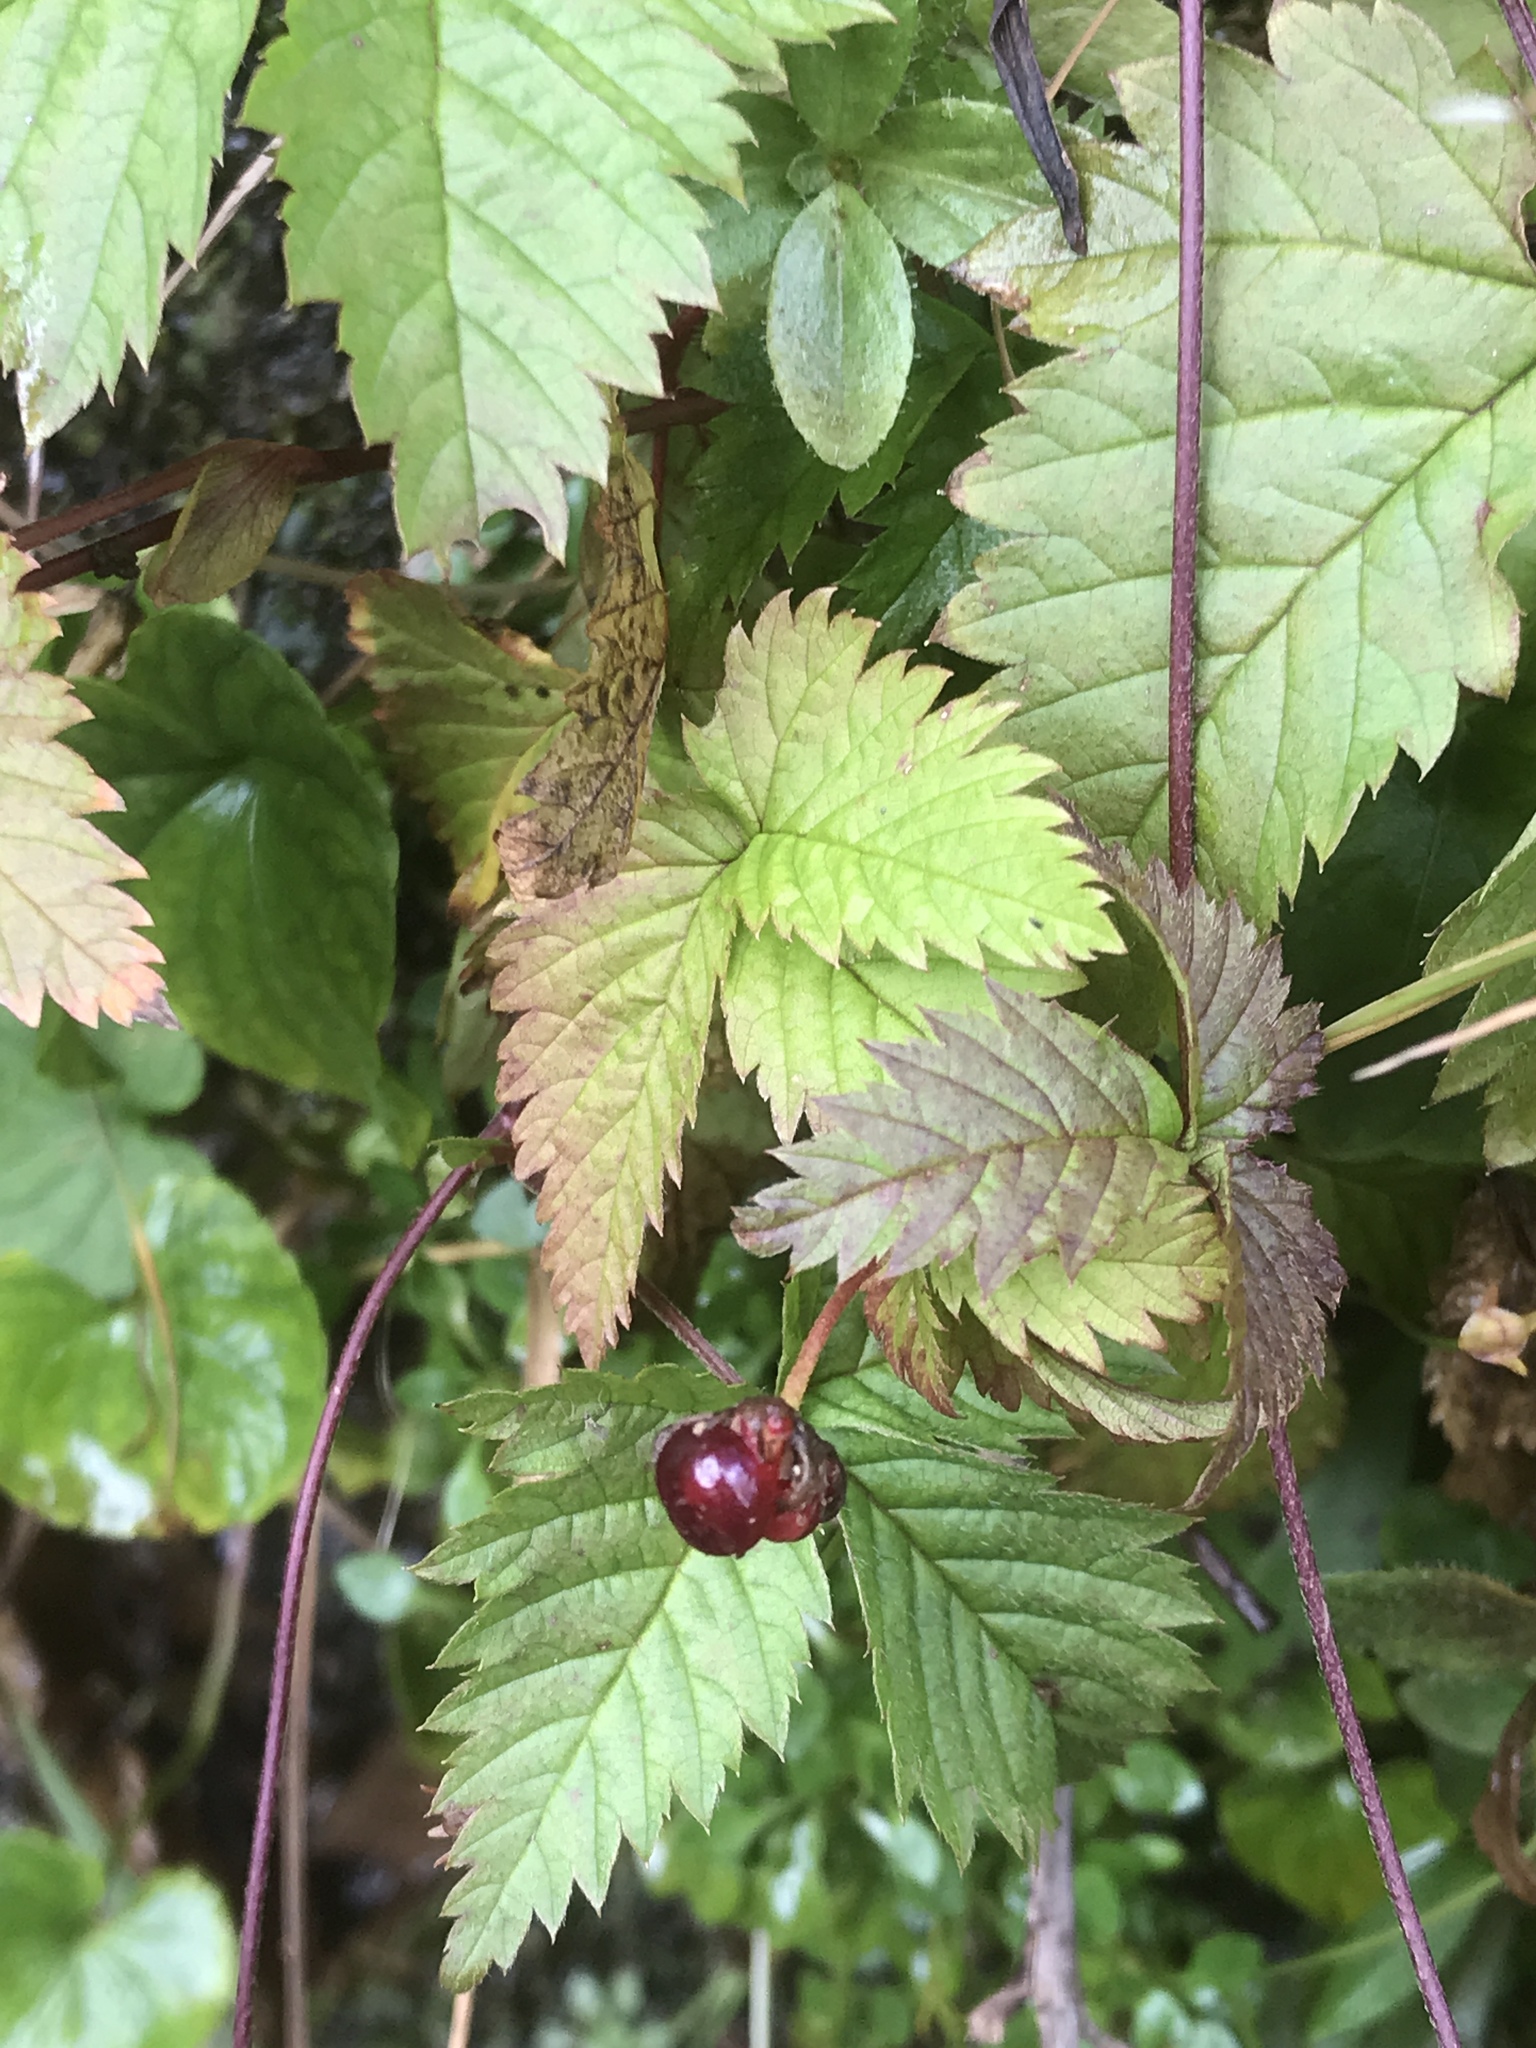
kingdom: Plantae
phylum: Tracheophyta
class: Magnoliopsida
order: Rosales
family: Rosaceae
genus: Rubus
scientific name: Rubus pubescens
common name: Dwarf raspberry
